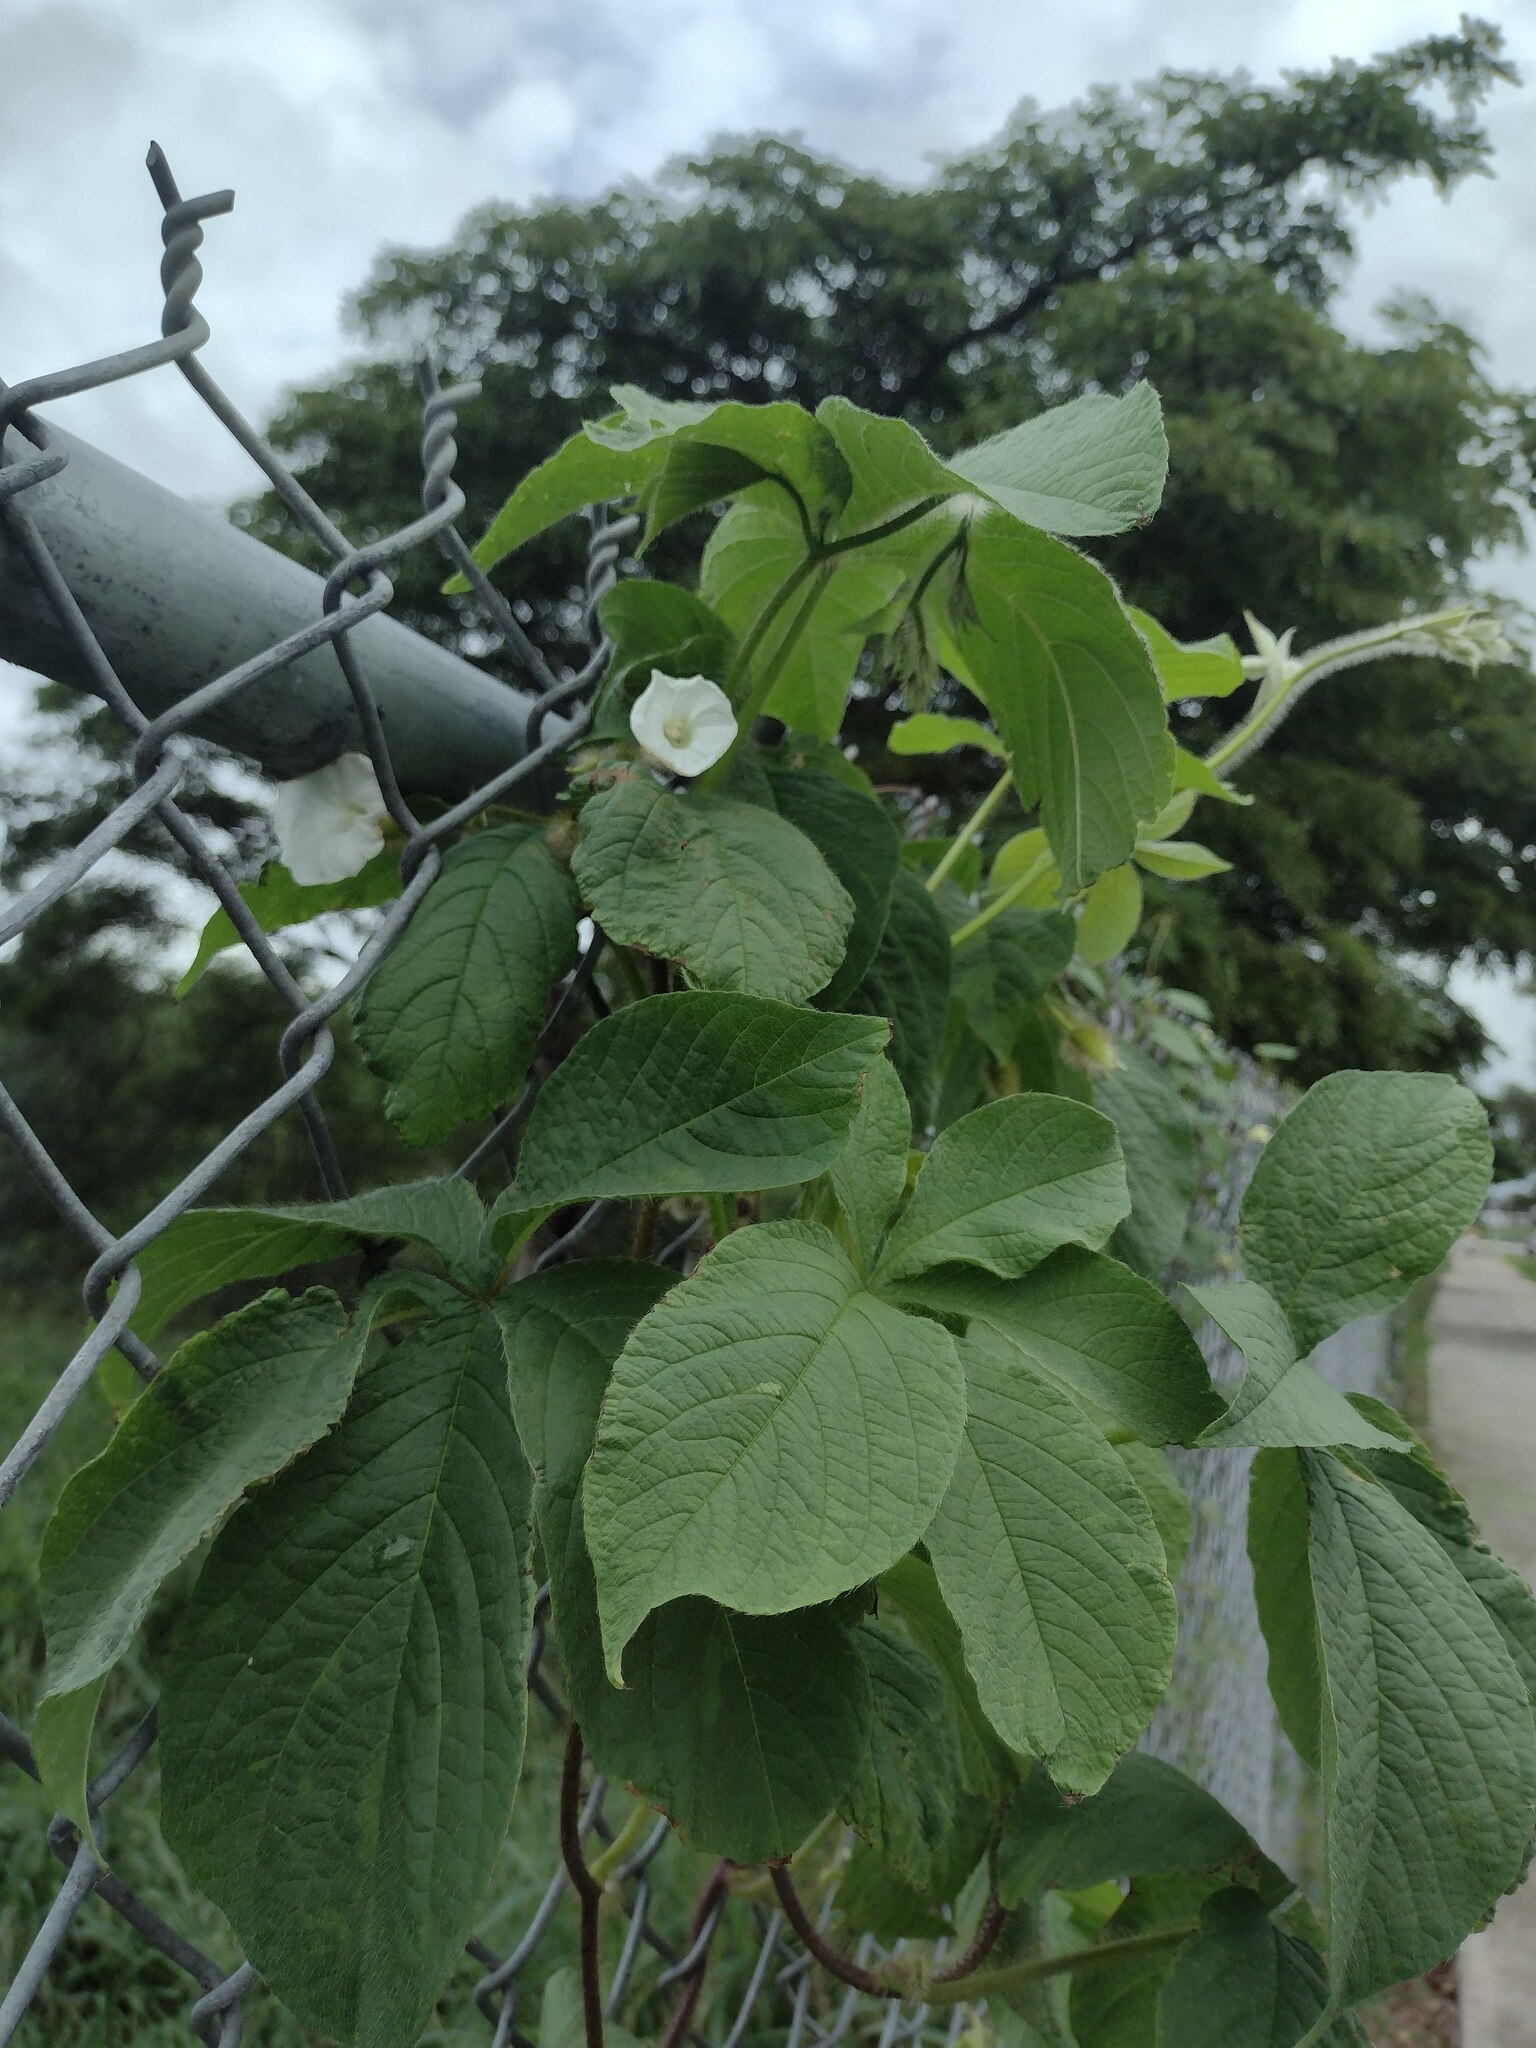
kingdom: Plantae
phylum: Tracheophyta
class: Magnoliopsida
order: Solanales
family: Convolvulaceae
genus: Distimake
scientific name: Distimake aegyptius
